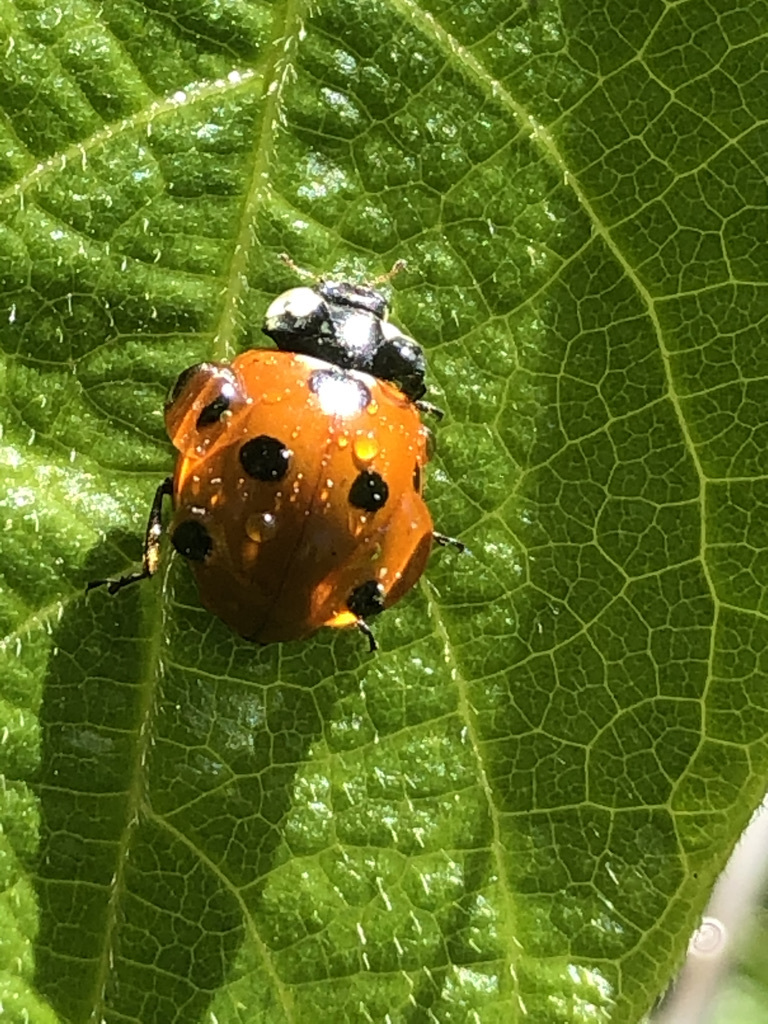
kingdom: Animalia
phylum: Arthropoda
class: Insecta
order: Coleoptera
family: Coccinellidae
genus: Coccinella
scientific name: Coccinella septempunctata
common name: Sevenspotted lady beetle
